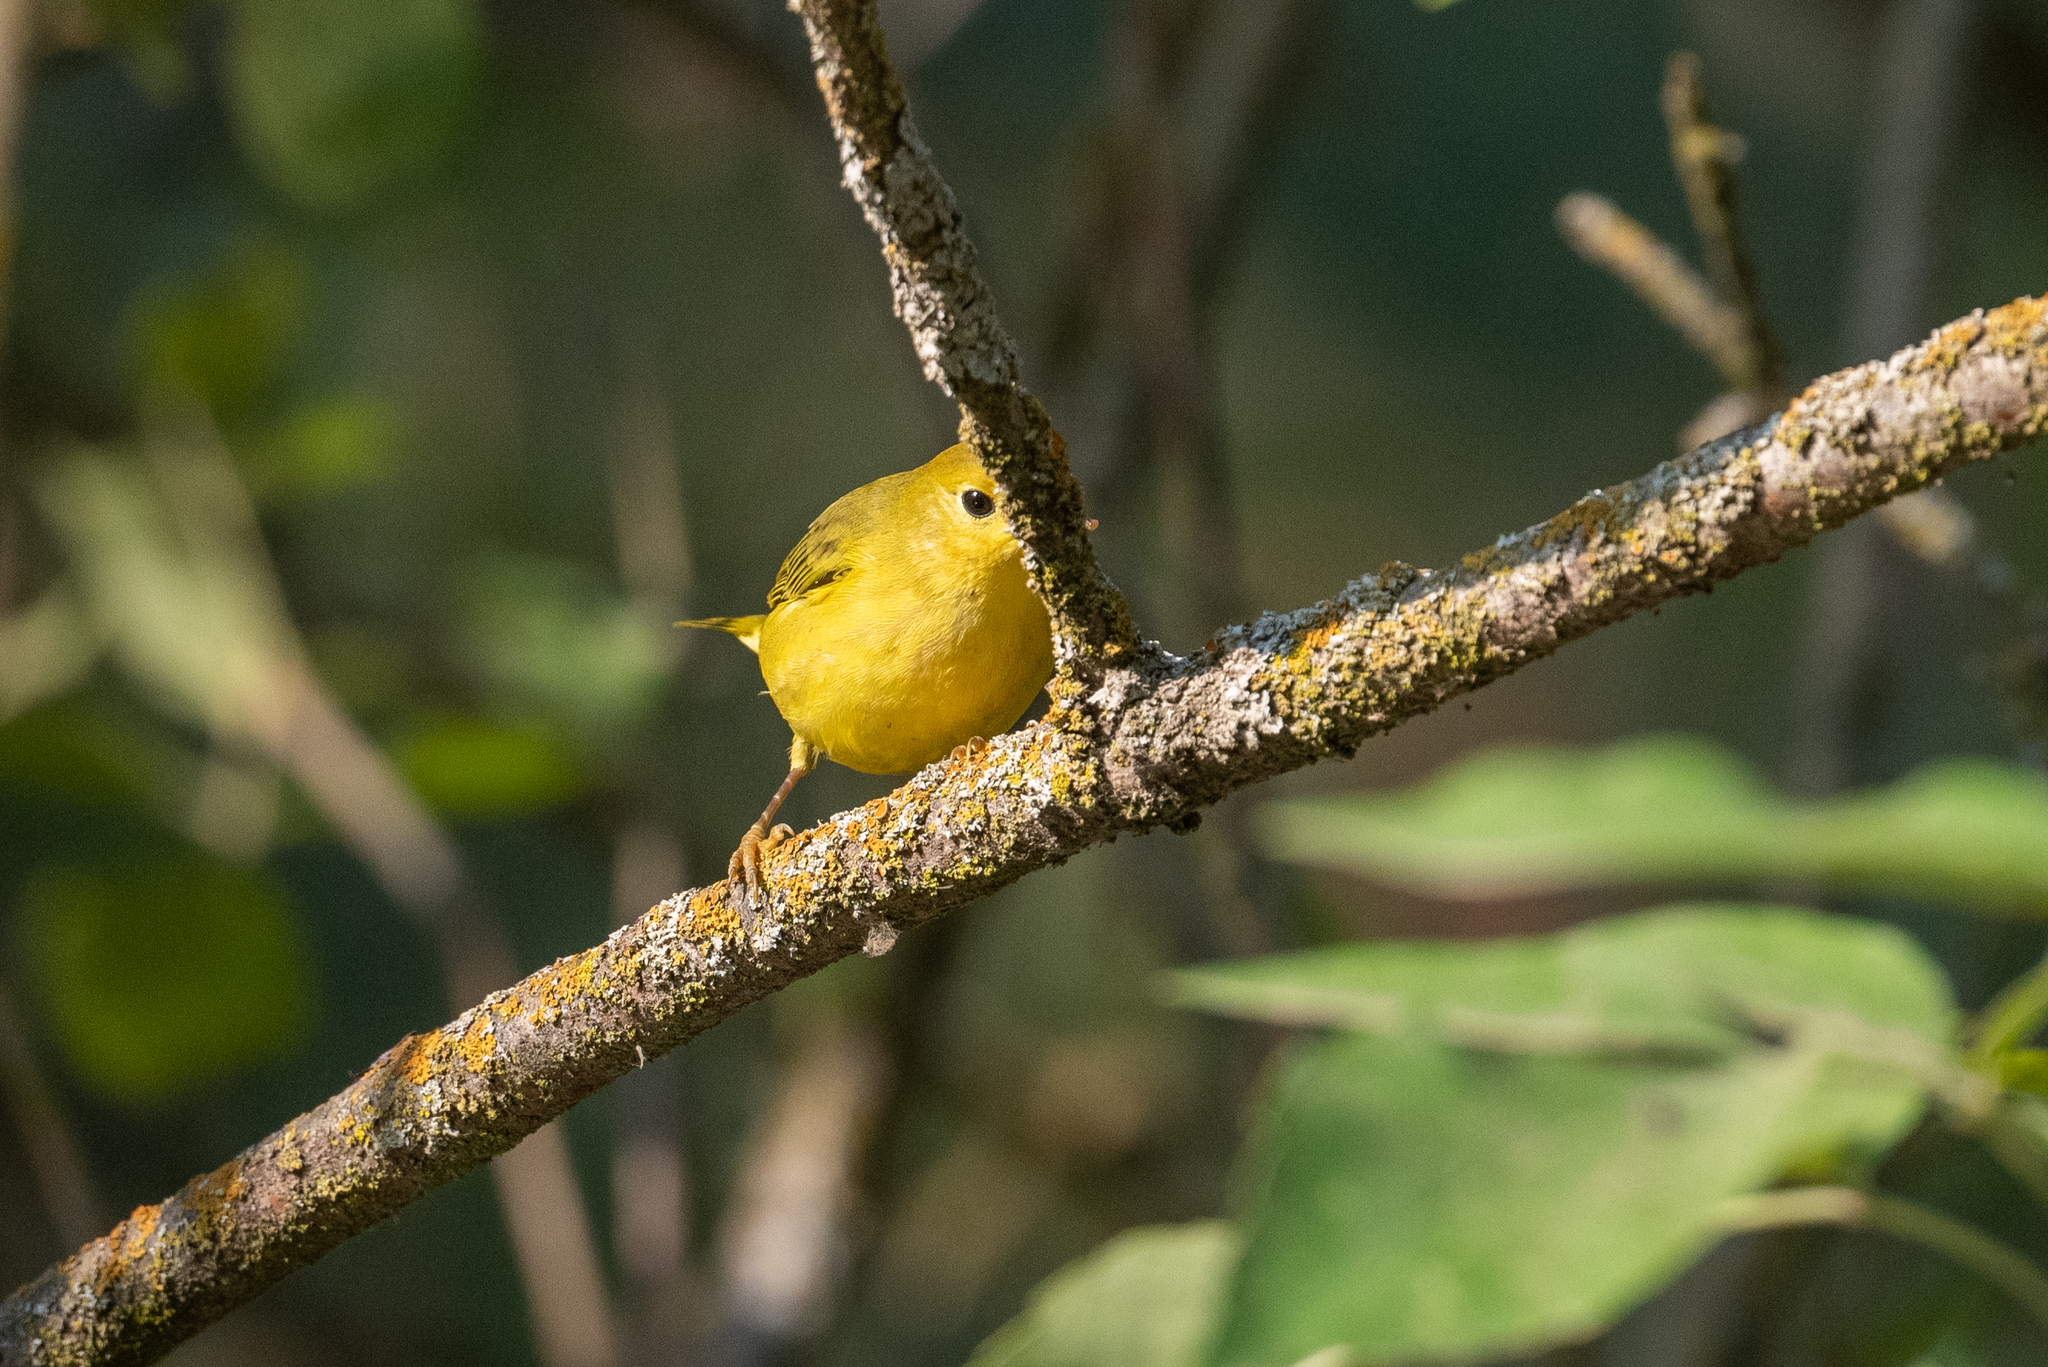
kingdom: Animalia
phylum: Chordata
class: Aves
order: Passeriformes
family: Parulidae
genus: Setophaga
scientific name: Setophaga petechia
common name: Yellow warbler
